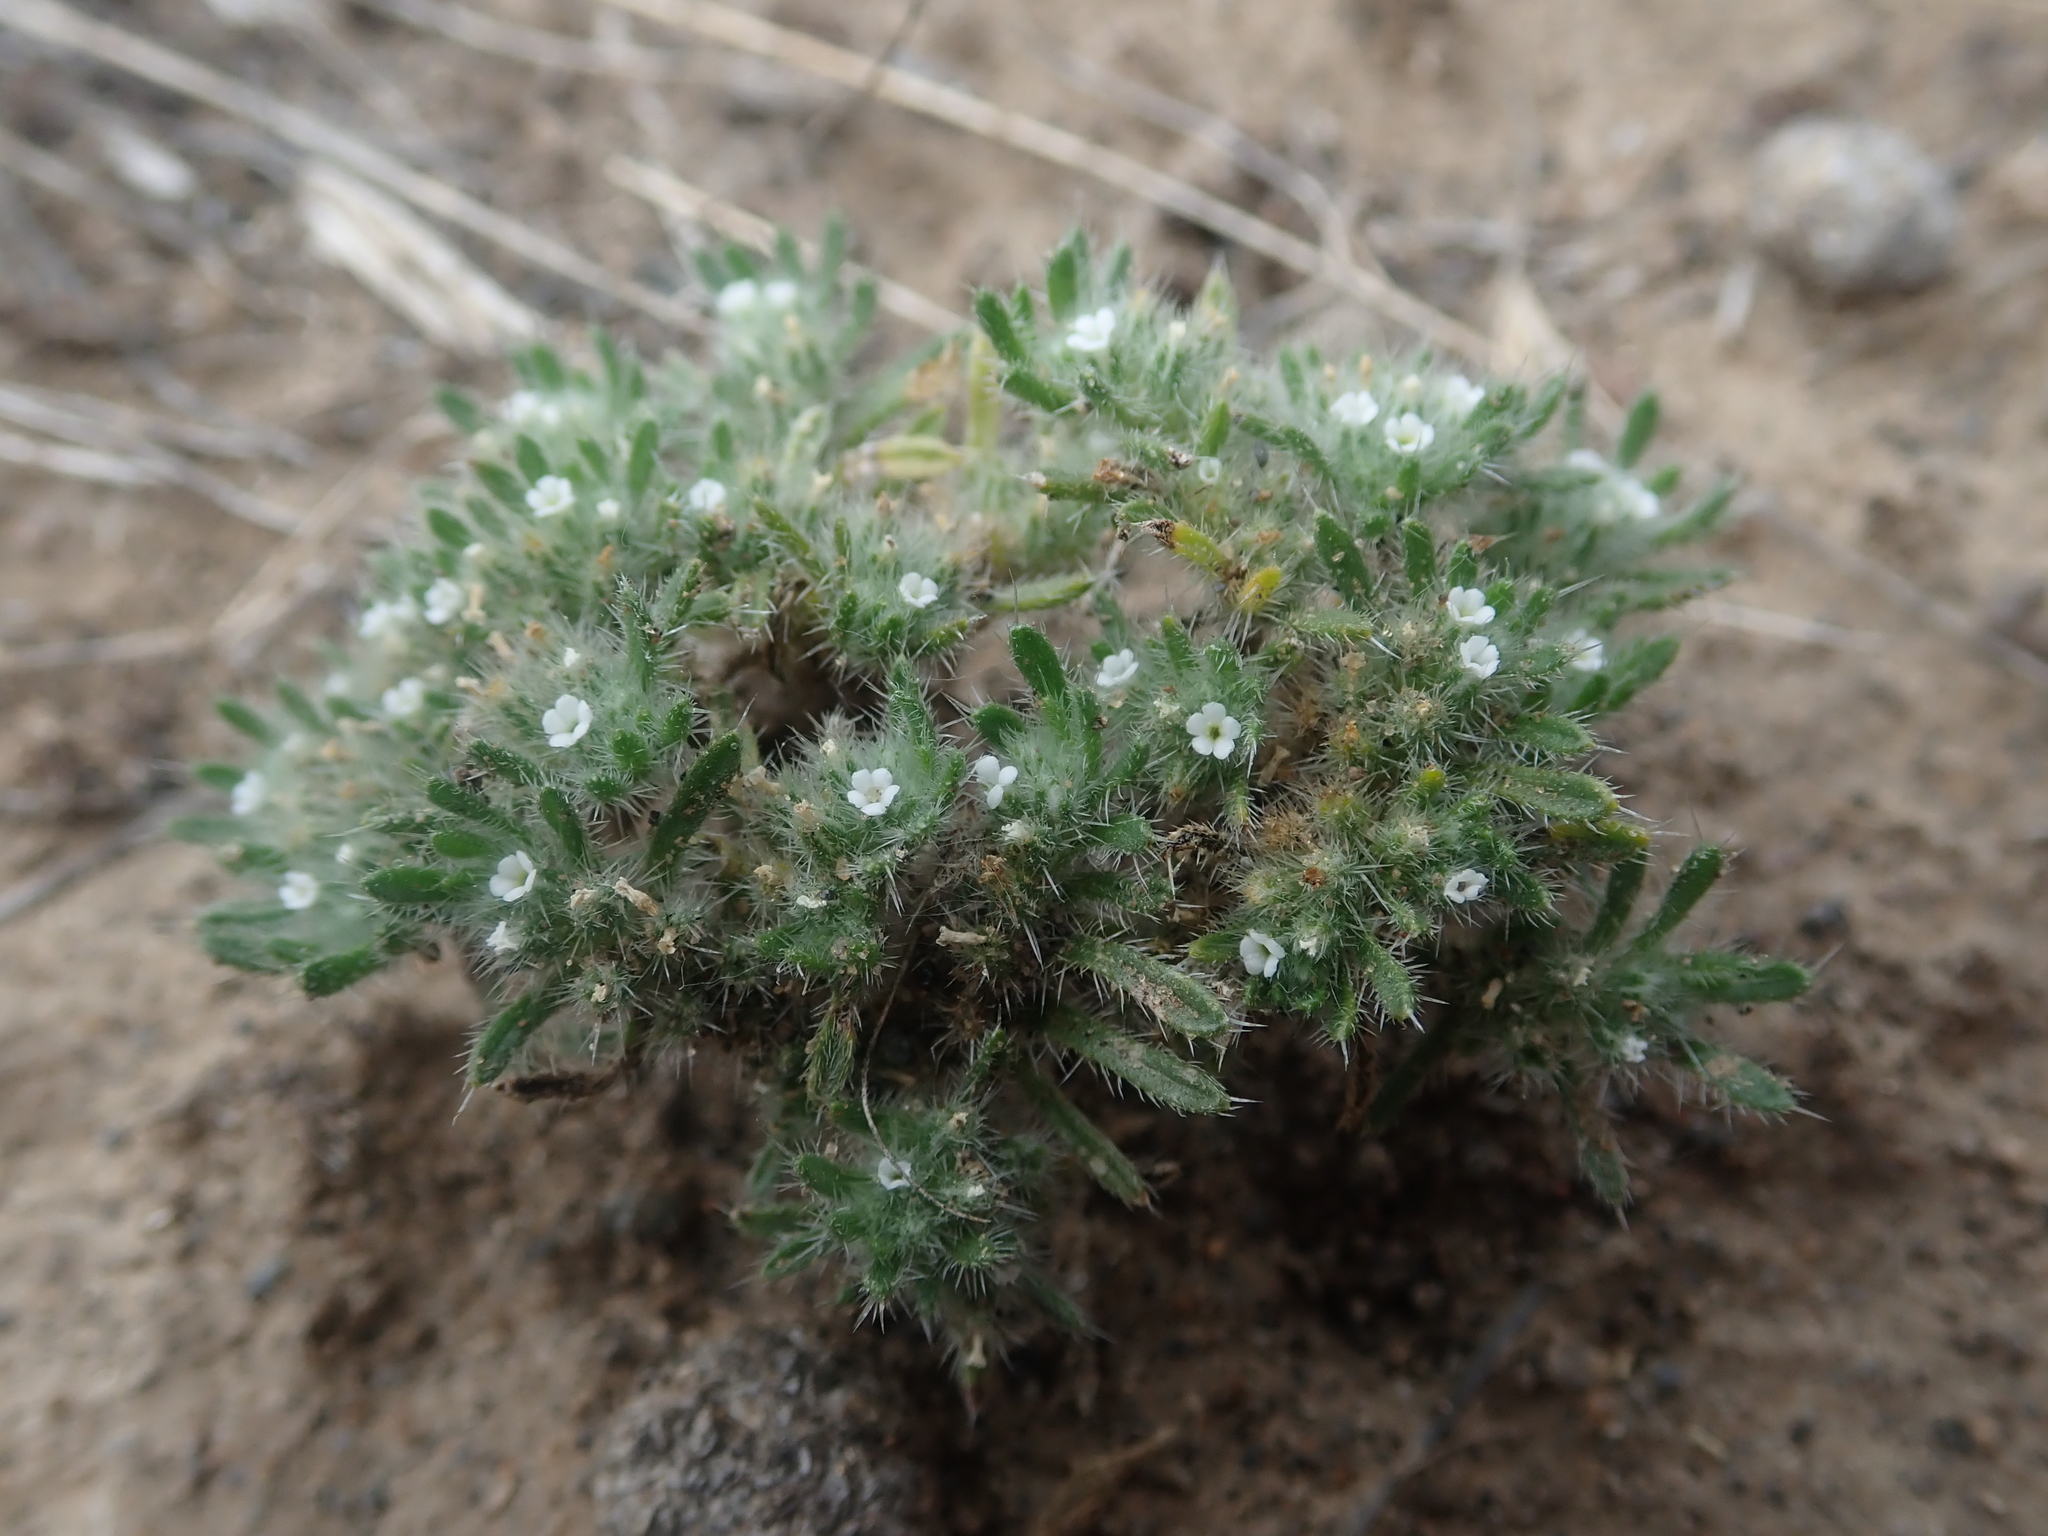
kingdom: Plantae
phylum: Tracheophyta
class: Magnoliopsida
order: Boraginales
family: Boraginaceae
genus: Greeneocharis
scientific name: Greeneocharis circumscissa
